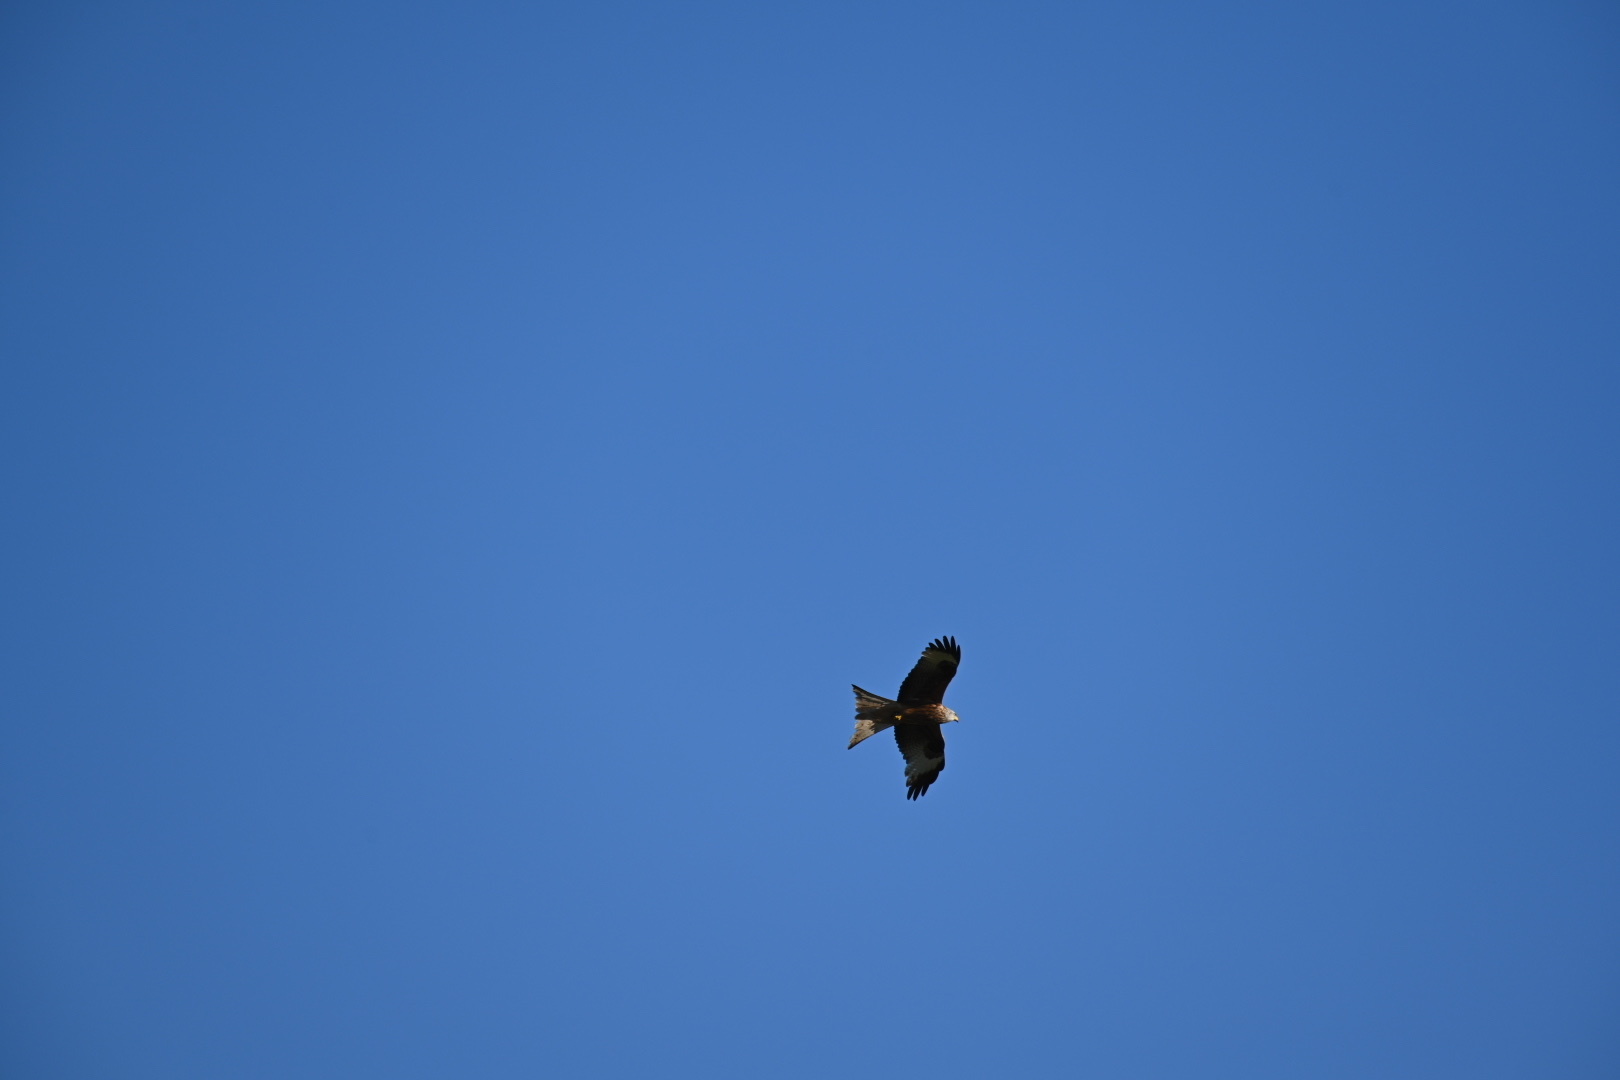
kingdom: Animalia
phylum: Chordata
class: Aves
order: Accipitriformes
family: Accipitridae
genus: Milvus
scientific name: Milvus milvus
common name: Red kite
